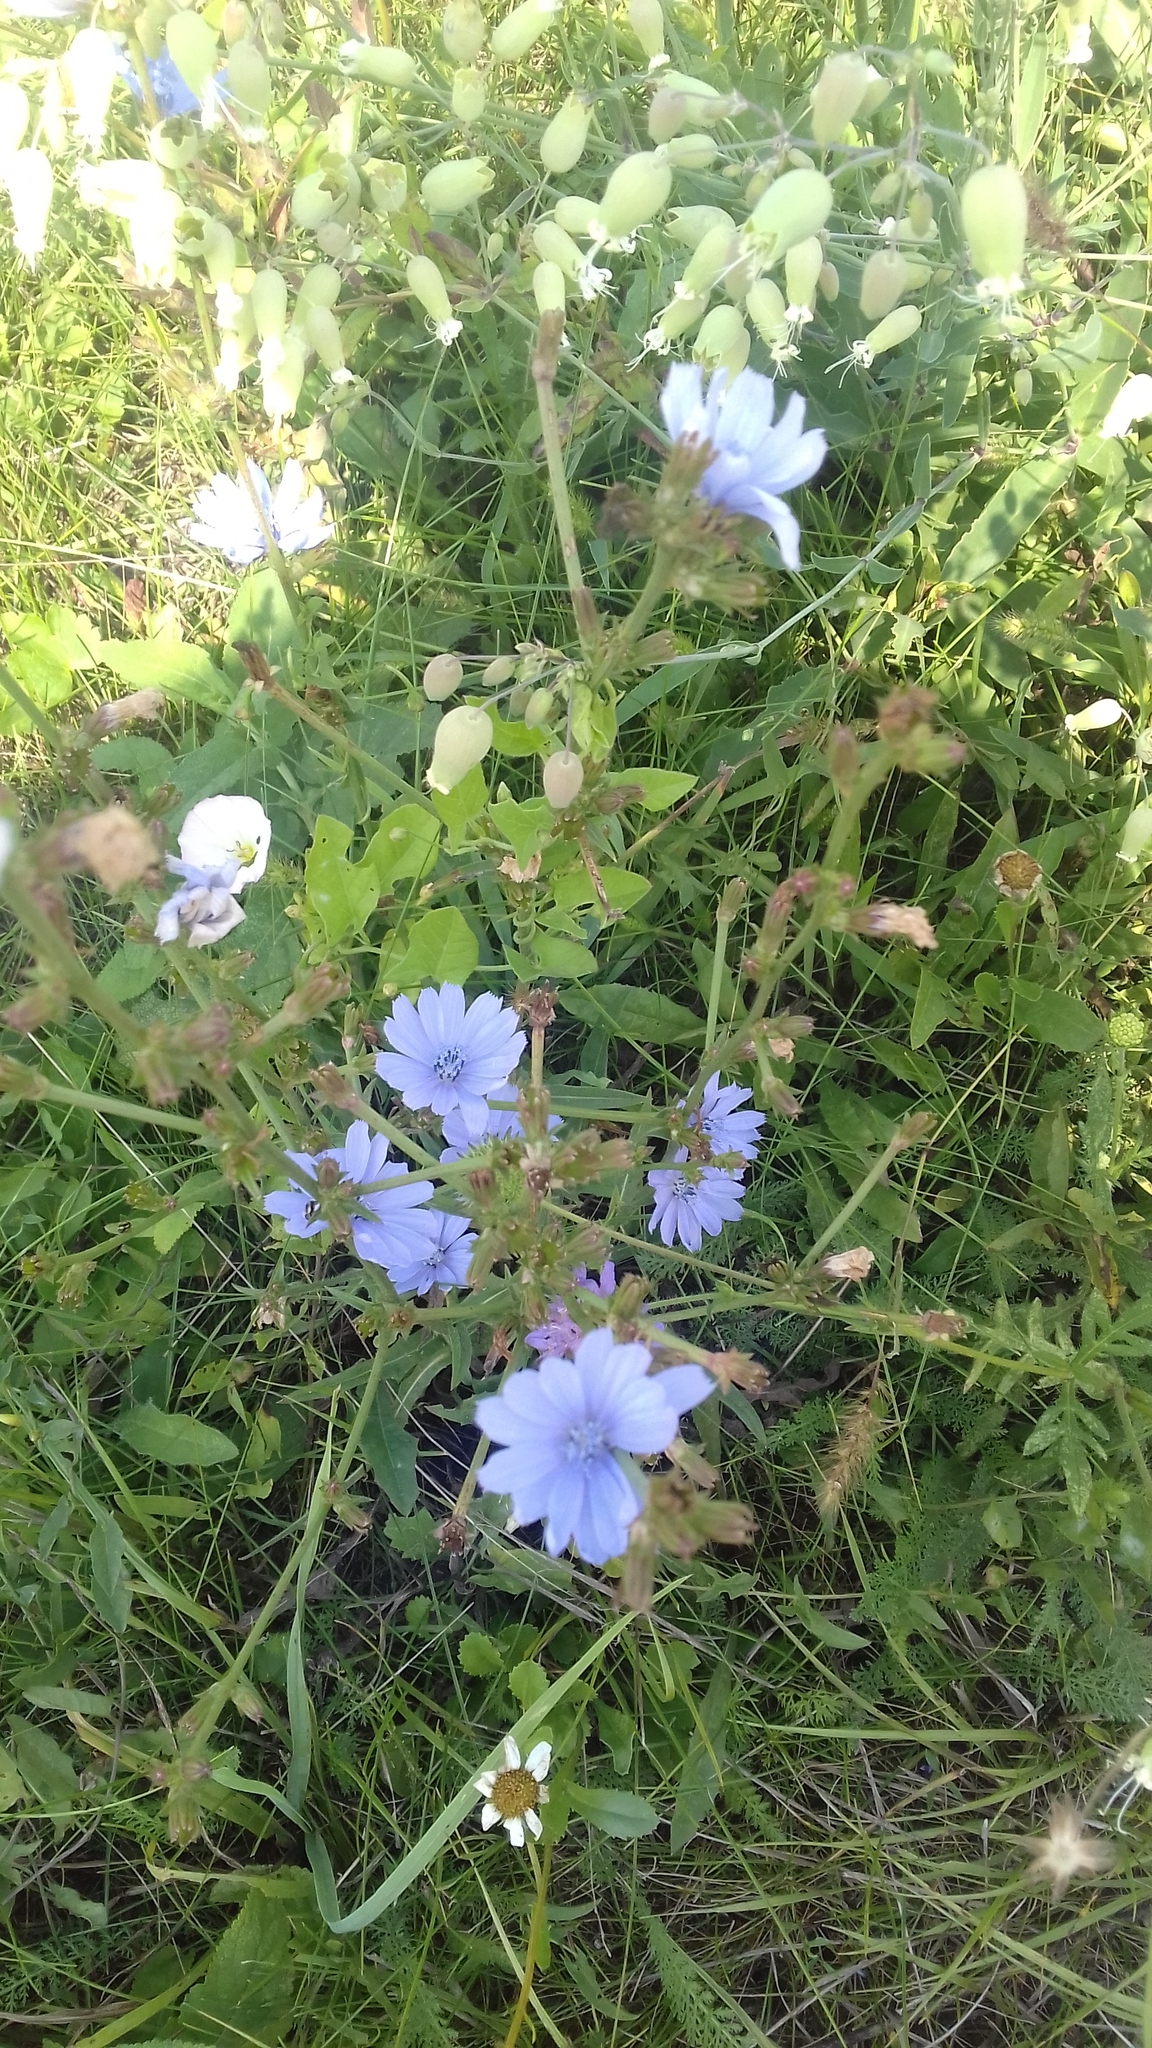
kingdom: Plantae
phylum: Tracheophyta
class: Magnoliopsida
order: Asterales
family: Asteraceae
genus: Cichorium
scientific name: Cichorium intybus
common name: Chicory
